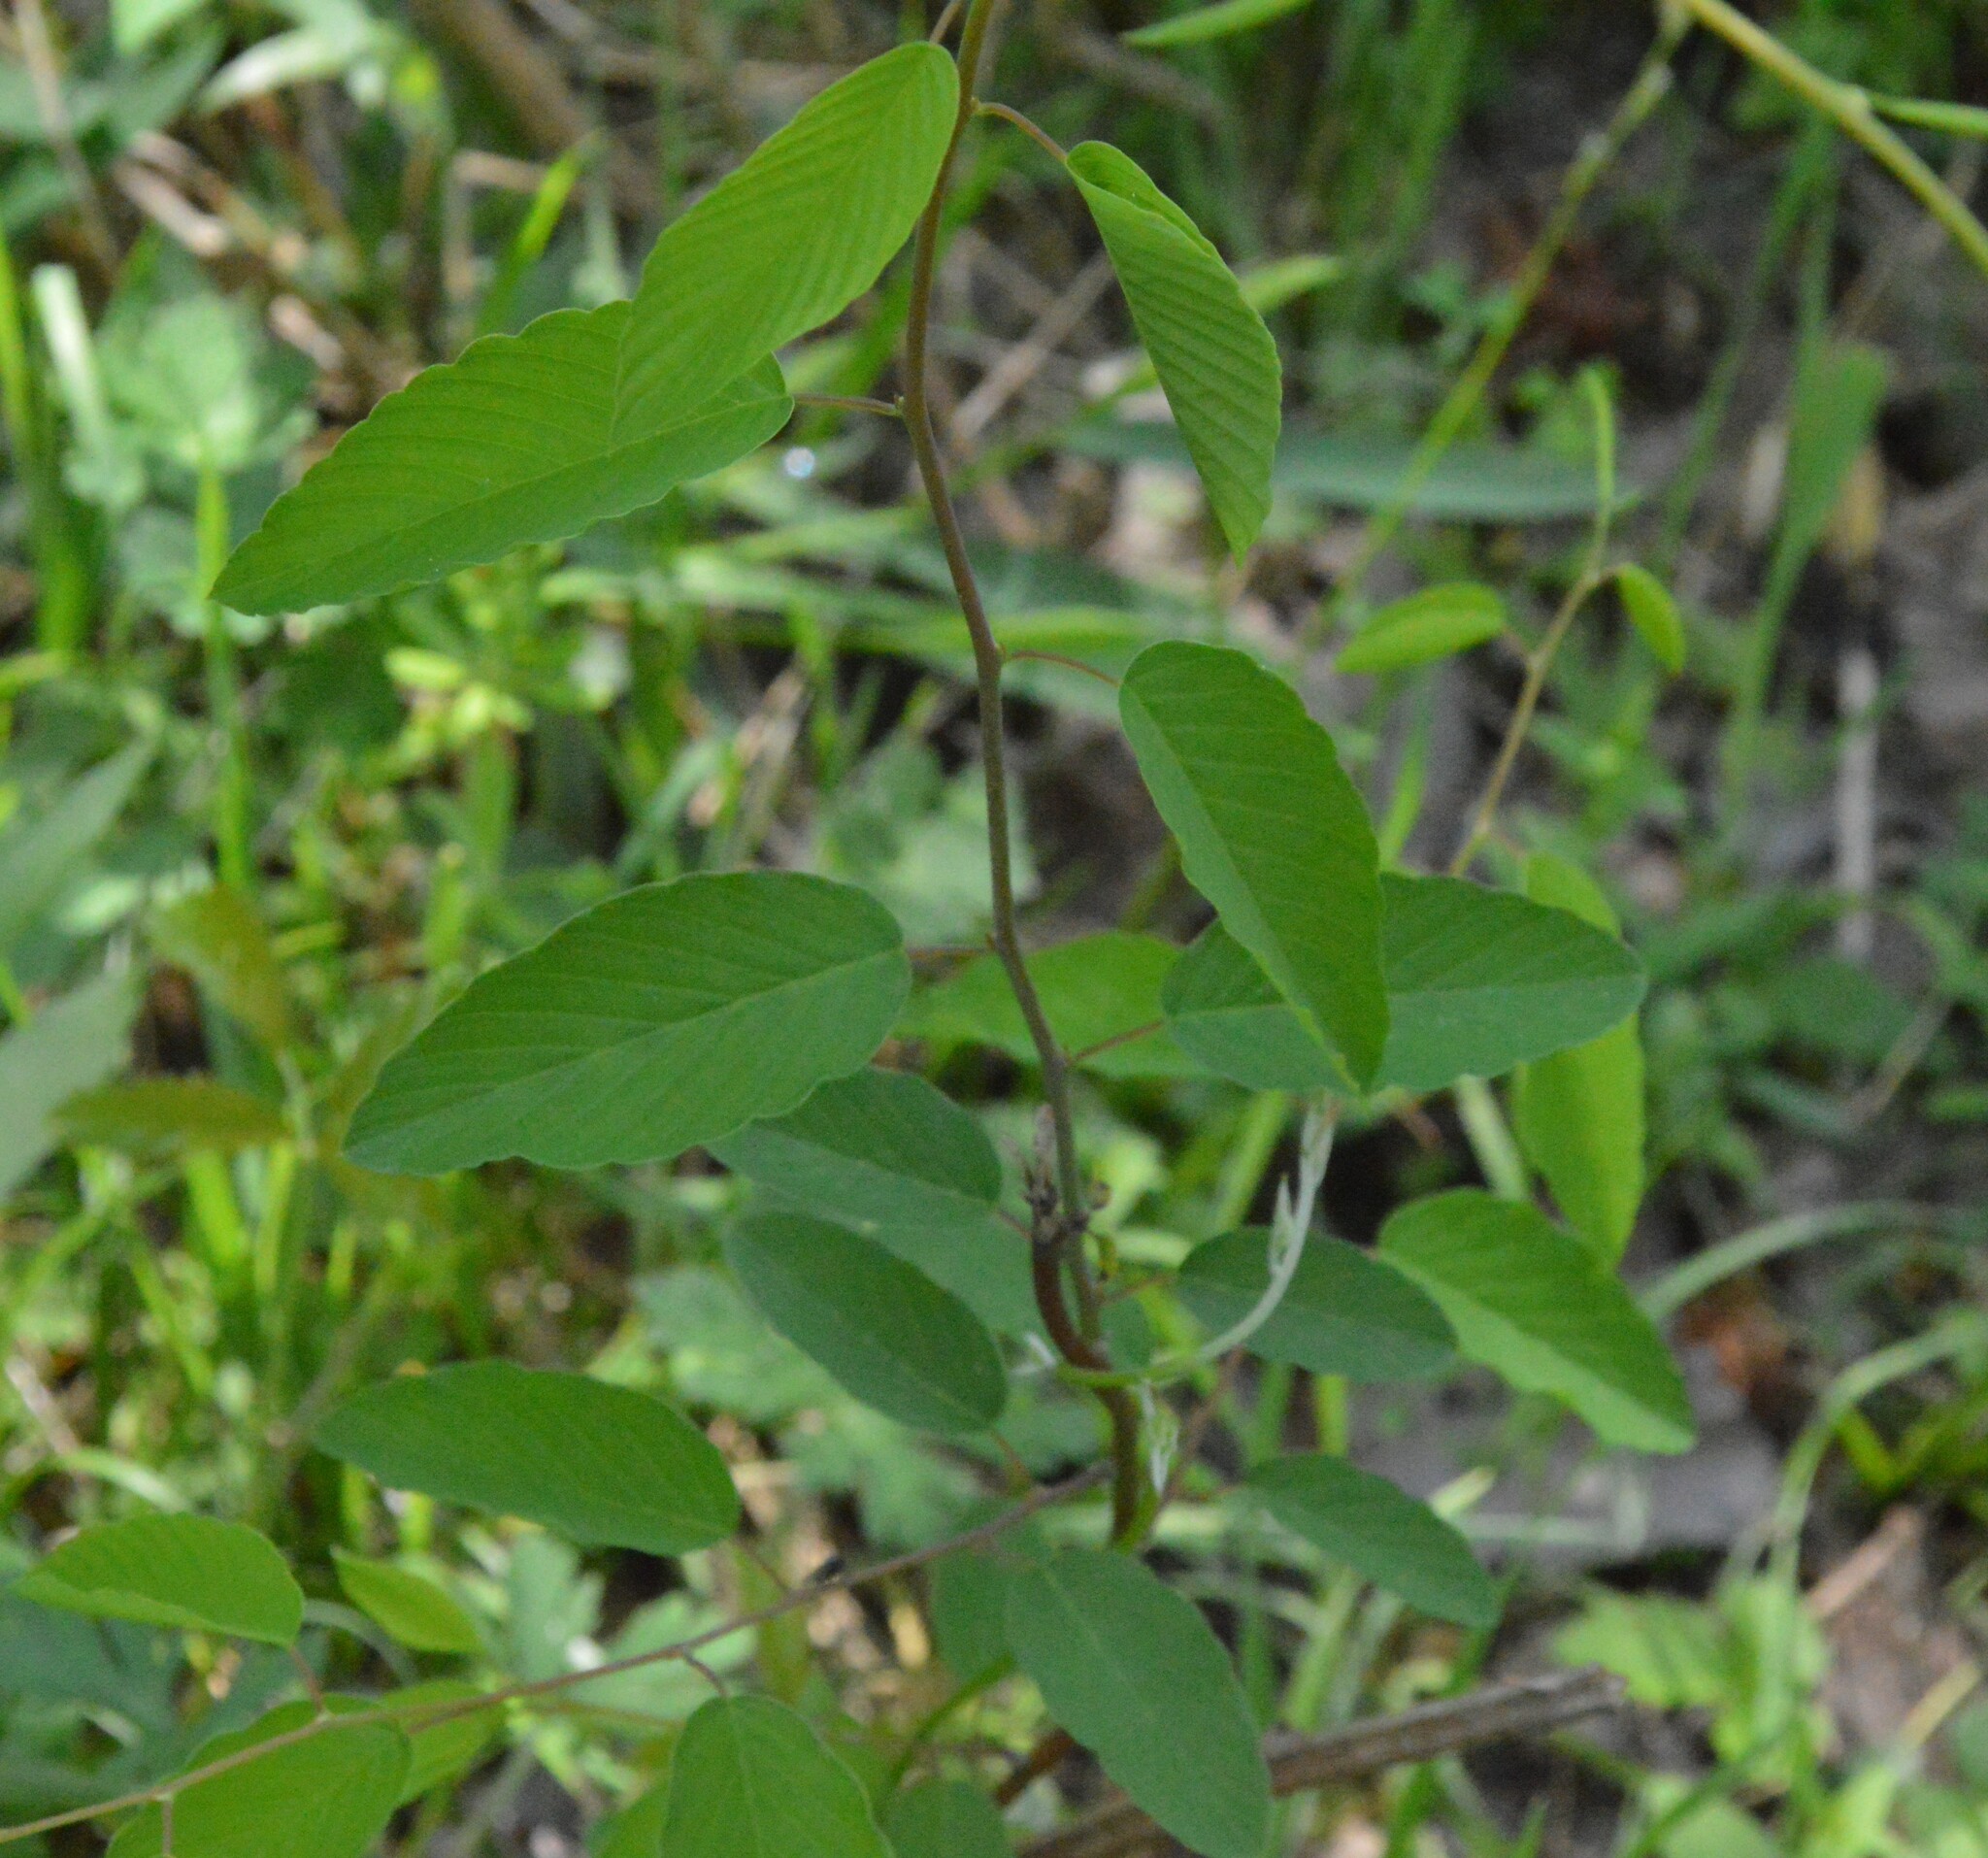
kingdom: Plantae
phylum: Tracheophyta
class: Magnoliopsida
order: Rosales
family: Rhamnaceae
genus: Berchemia
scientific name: Berchemia scandens
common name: Supplejack
